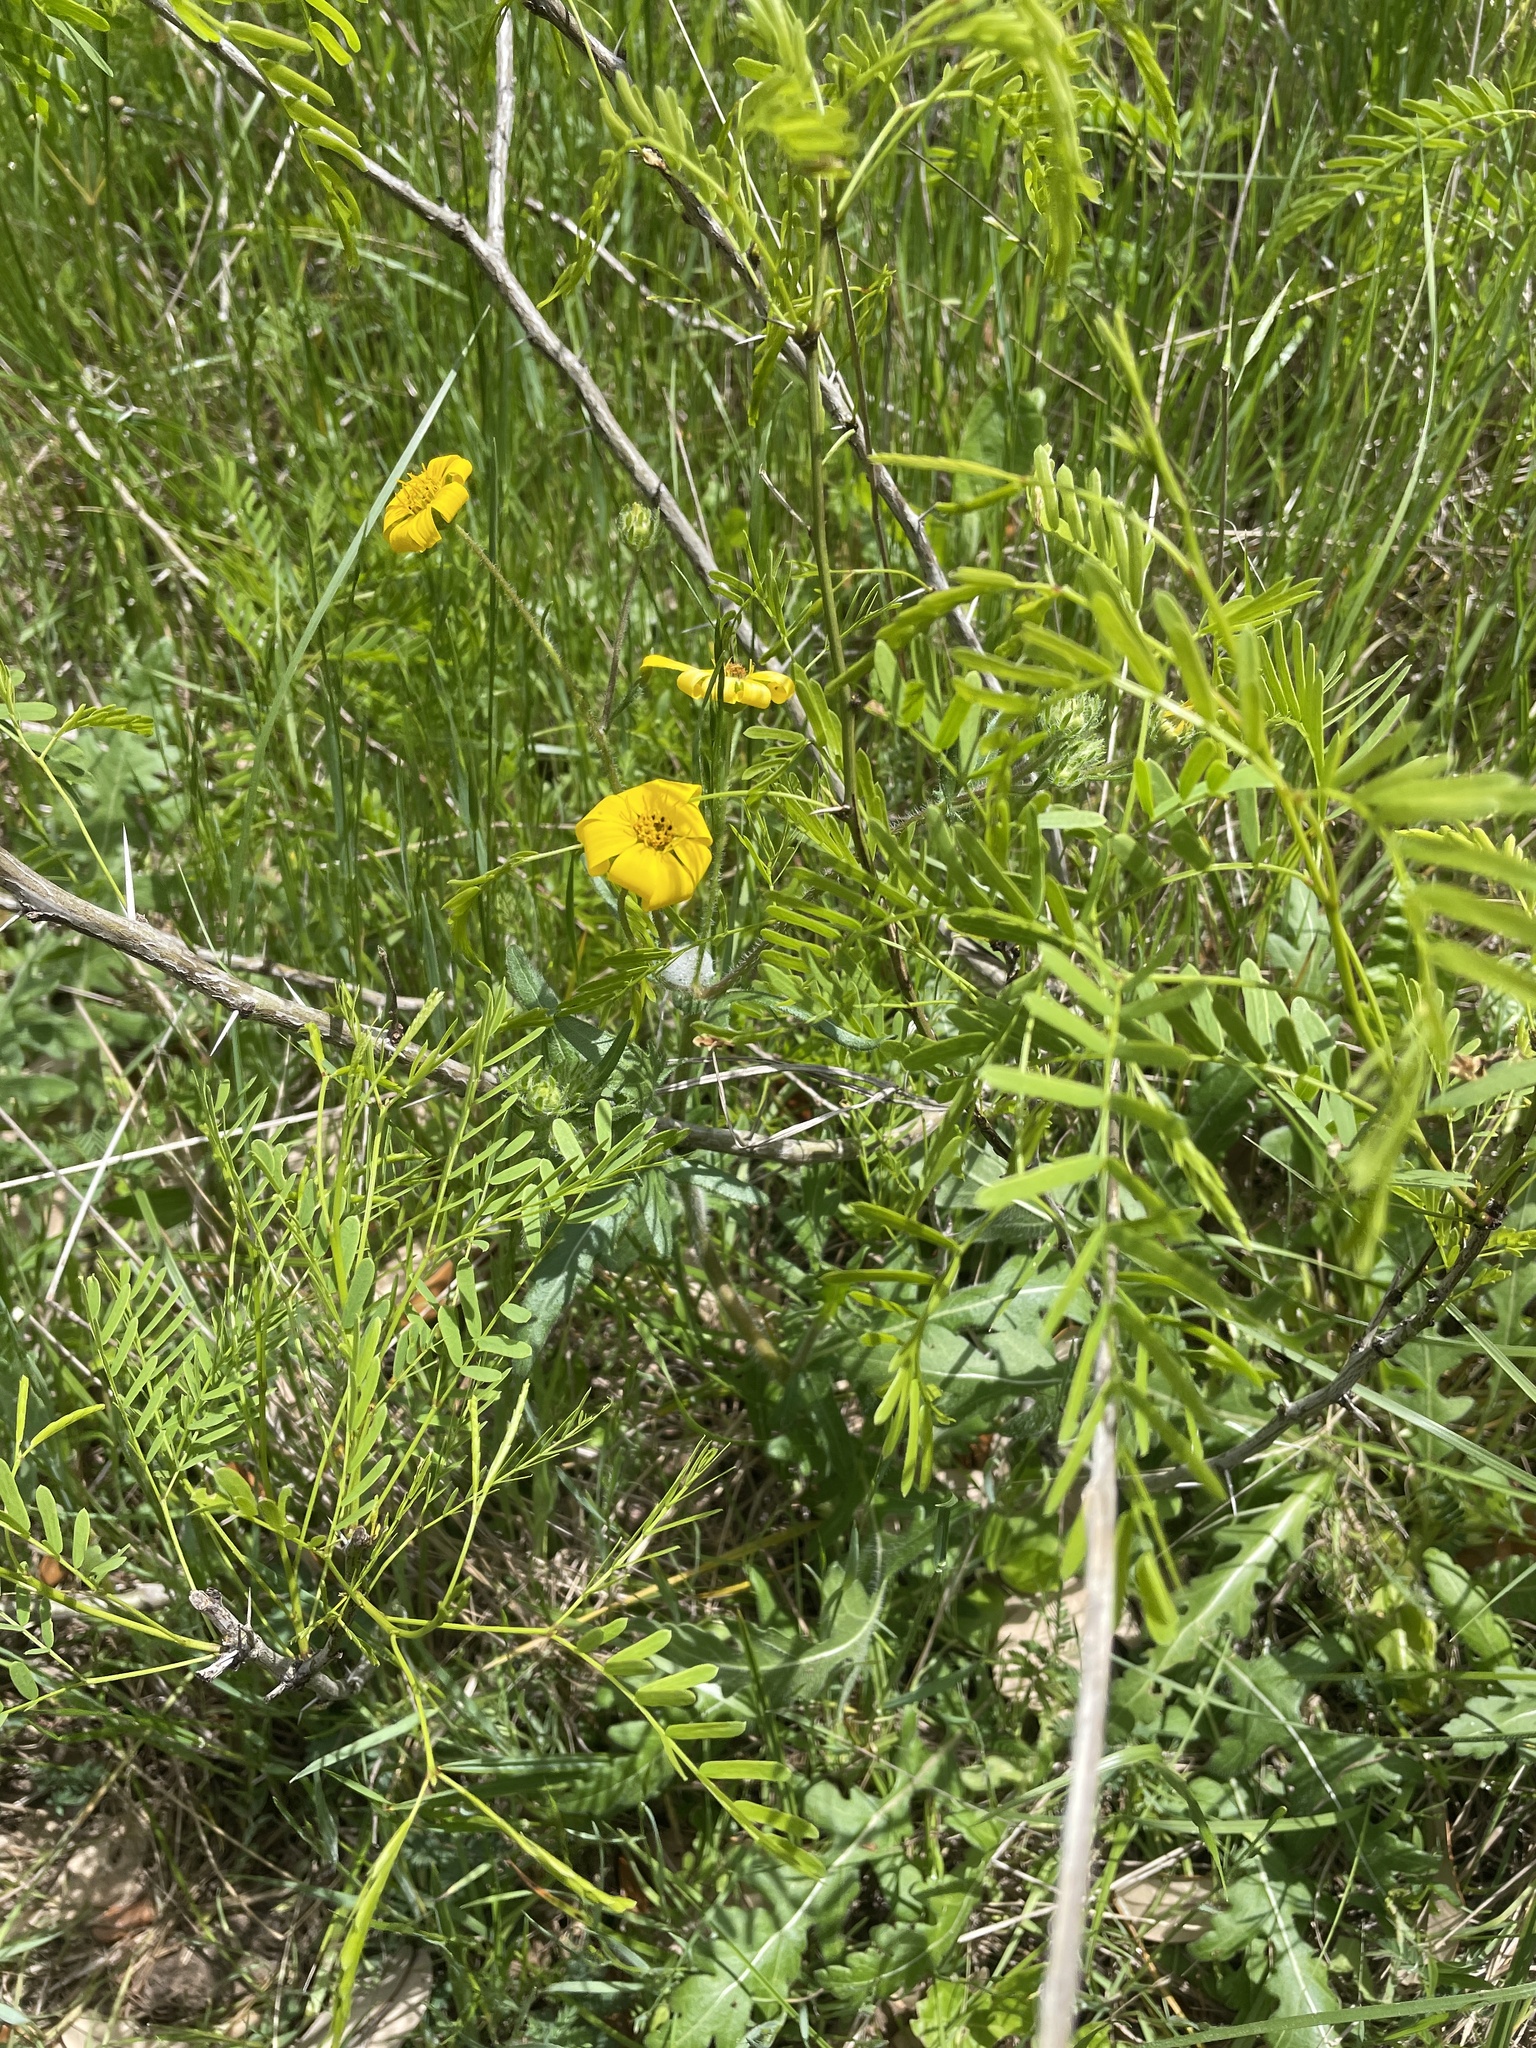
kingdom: Plantae
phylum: Tracheophyta
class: Magnoliopsida
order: Asterales
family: Asteraceae
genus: Engelmannia
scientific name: Engelmannia peristenia
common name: Engelmann's daisy
